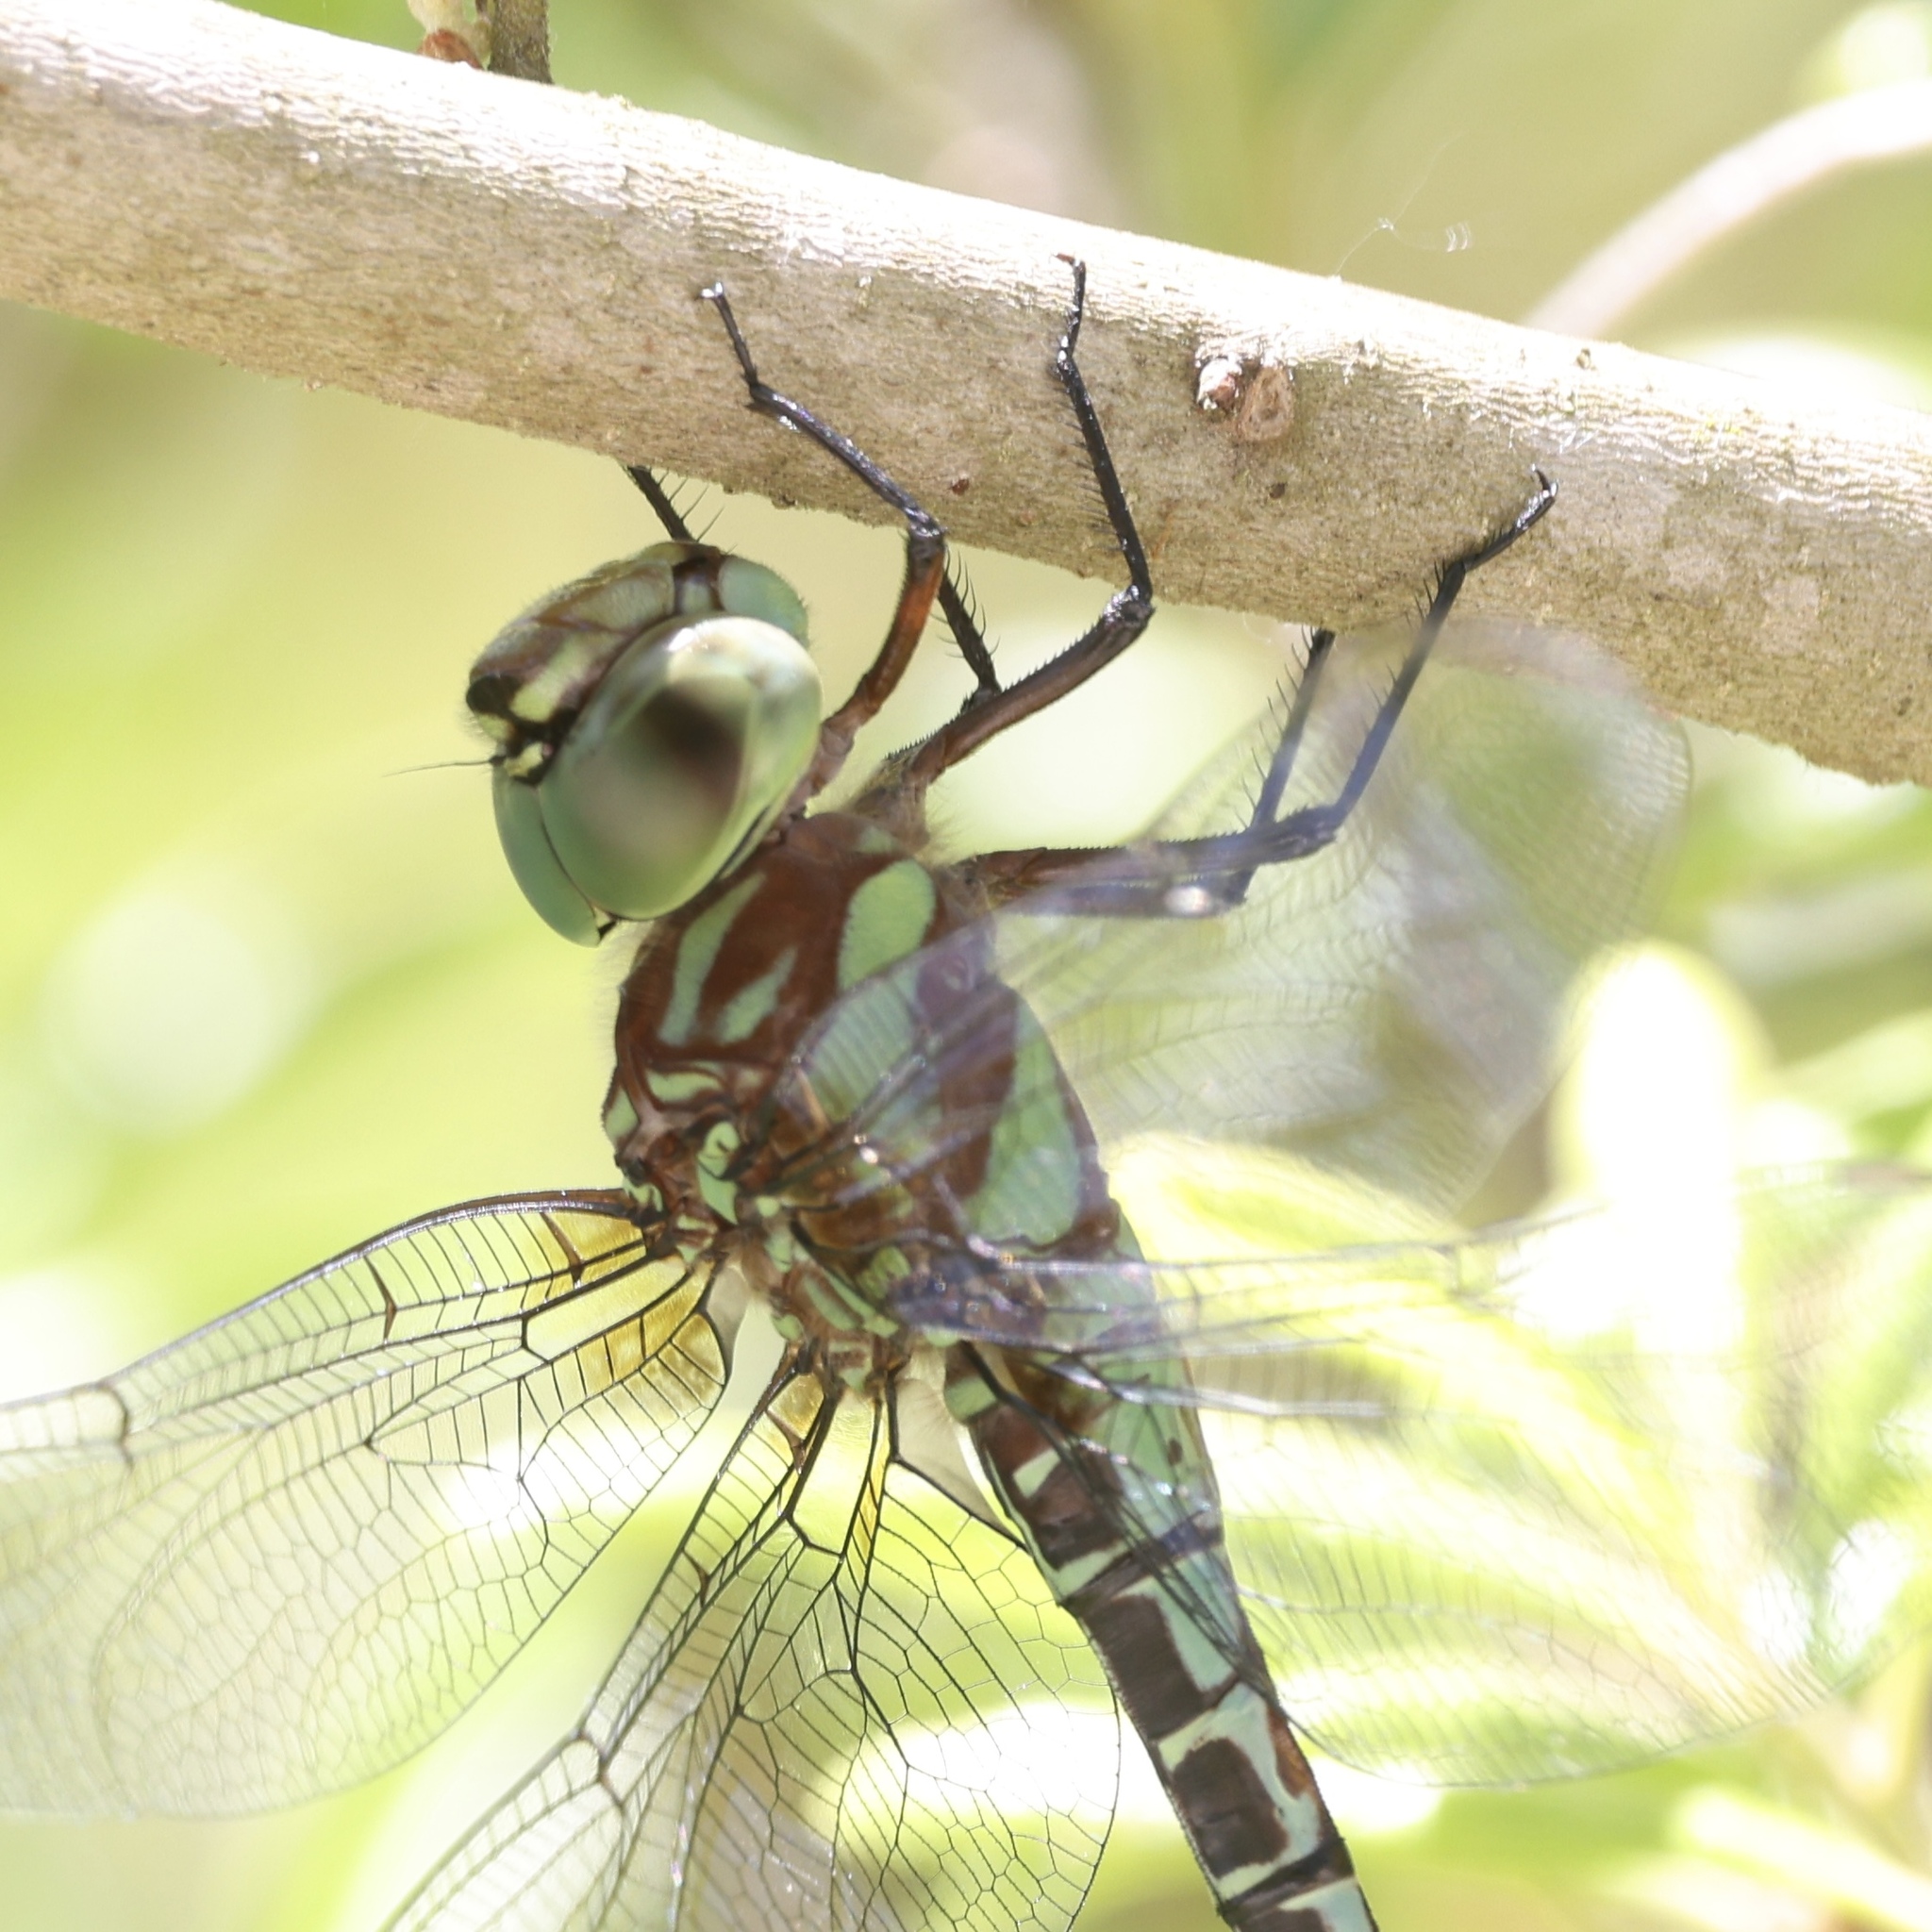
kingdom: Animalia
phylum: Arthropoda
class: Insecta
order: Odonata
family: Aeshnidae
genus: Coryphaeschna
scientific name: Coryphaeschna ingens
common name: Regal darner
